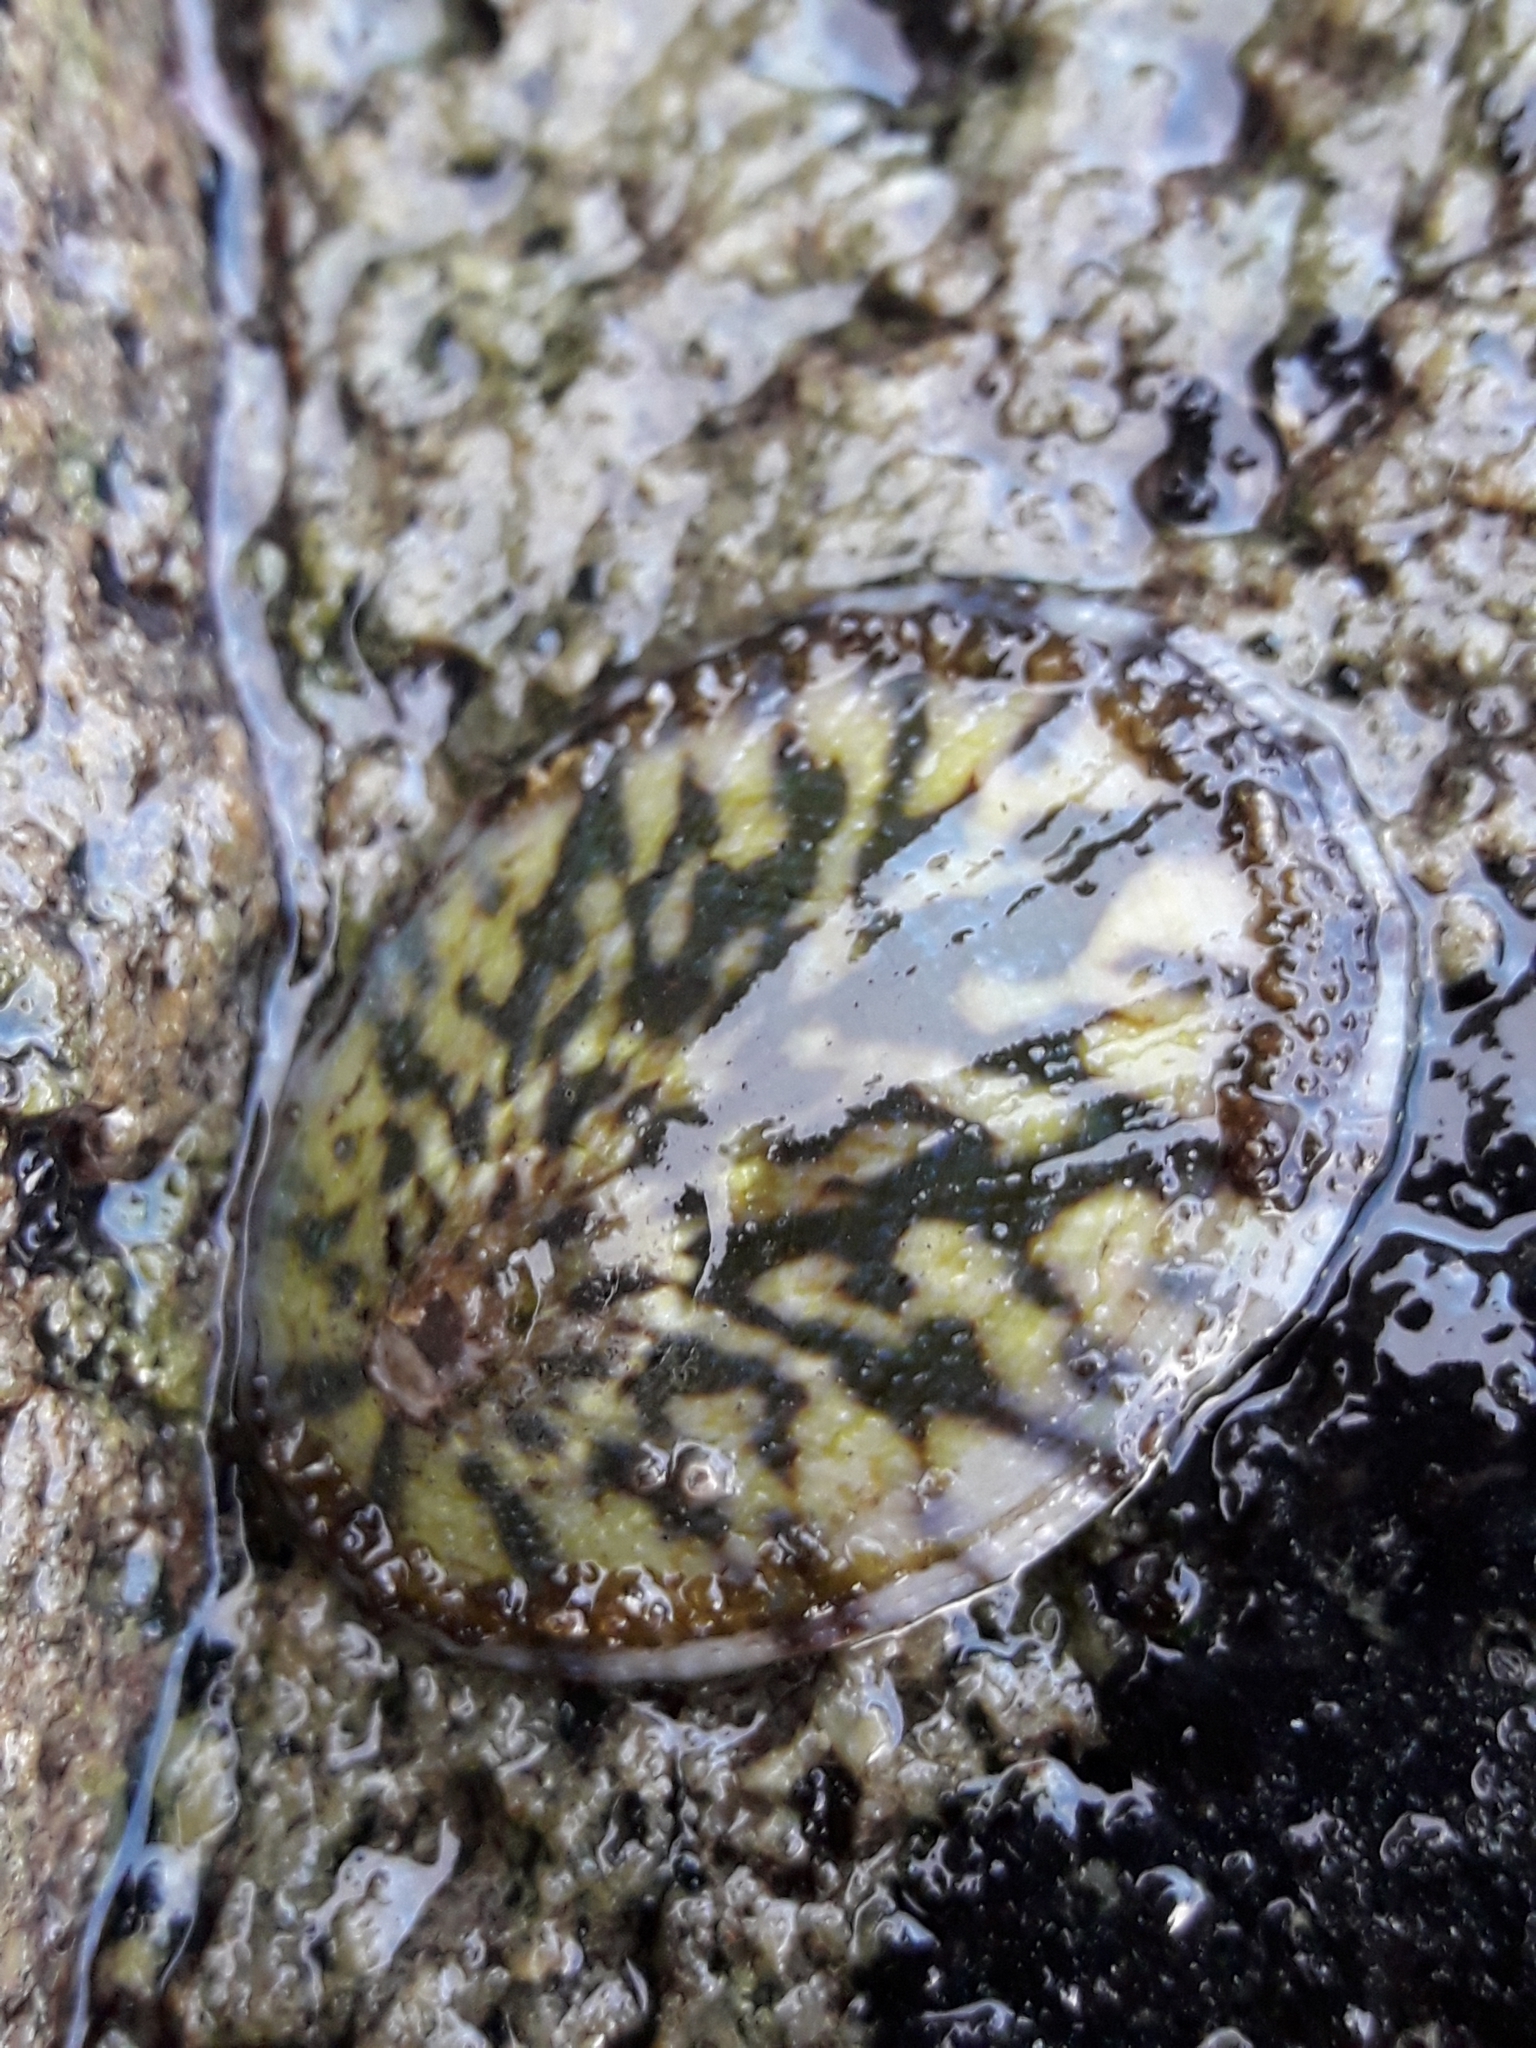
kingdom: Animalia
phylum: Mollusca
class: Gastropoda
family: Nacellidae
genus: Cellana
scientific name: Cellana radians
